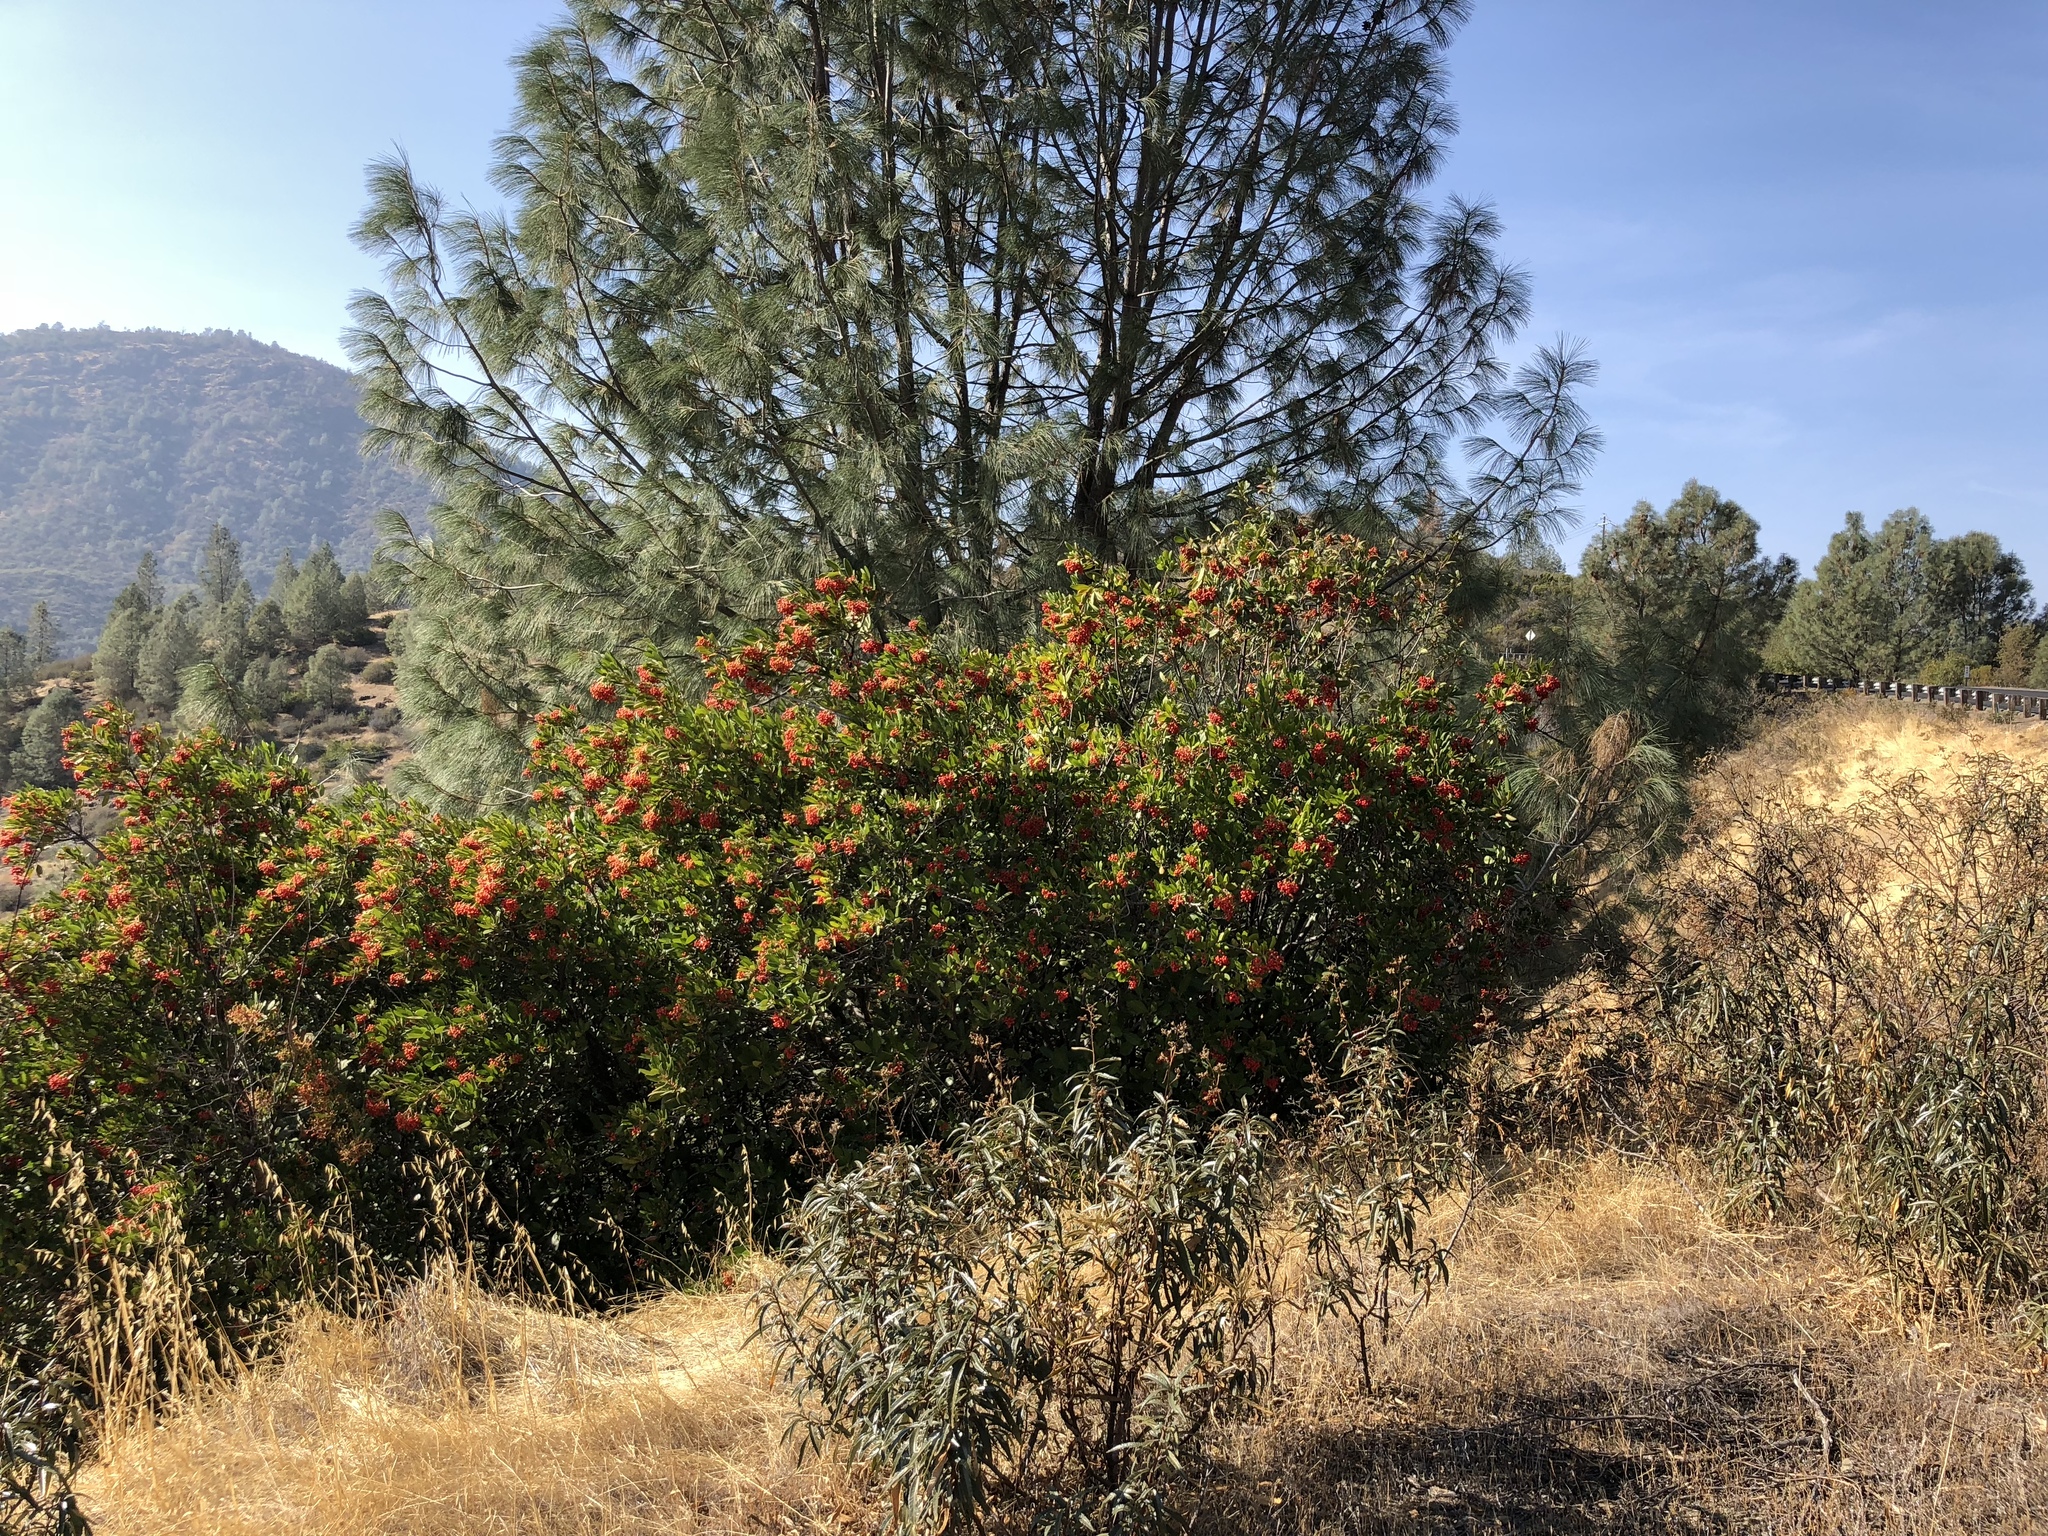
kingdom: Plantae
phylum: Tracheophyta
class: Magnoliopsida
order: Rosales
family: Rosaceae
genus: Heteromeles
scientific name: Heteromeles arbutifolia
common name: California-holly
